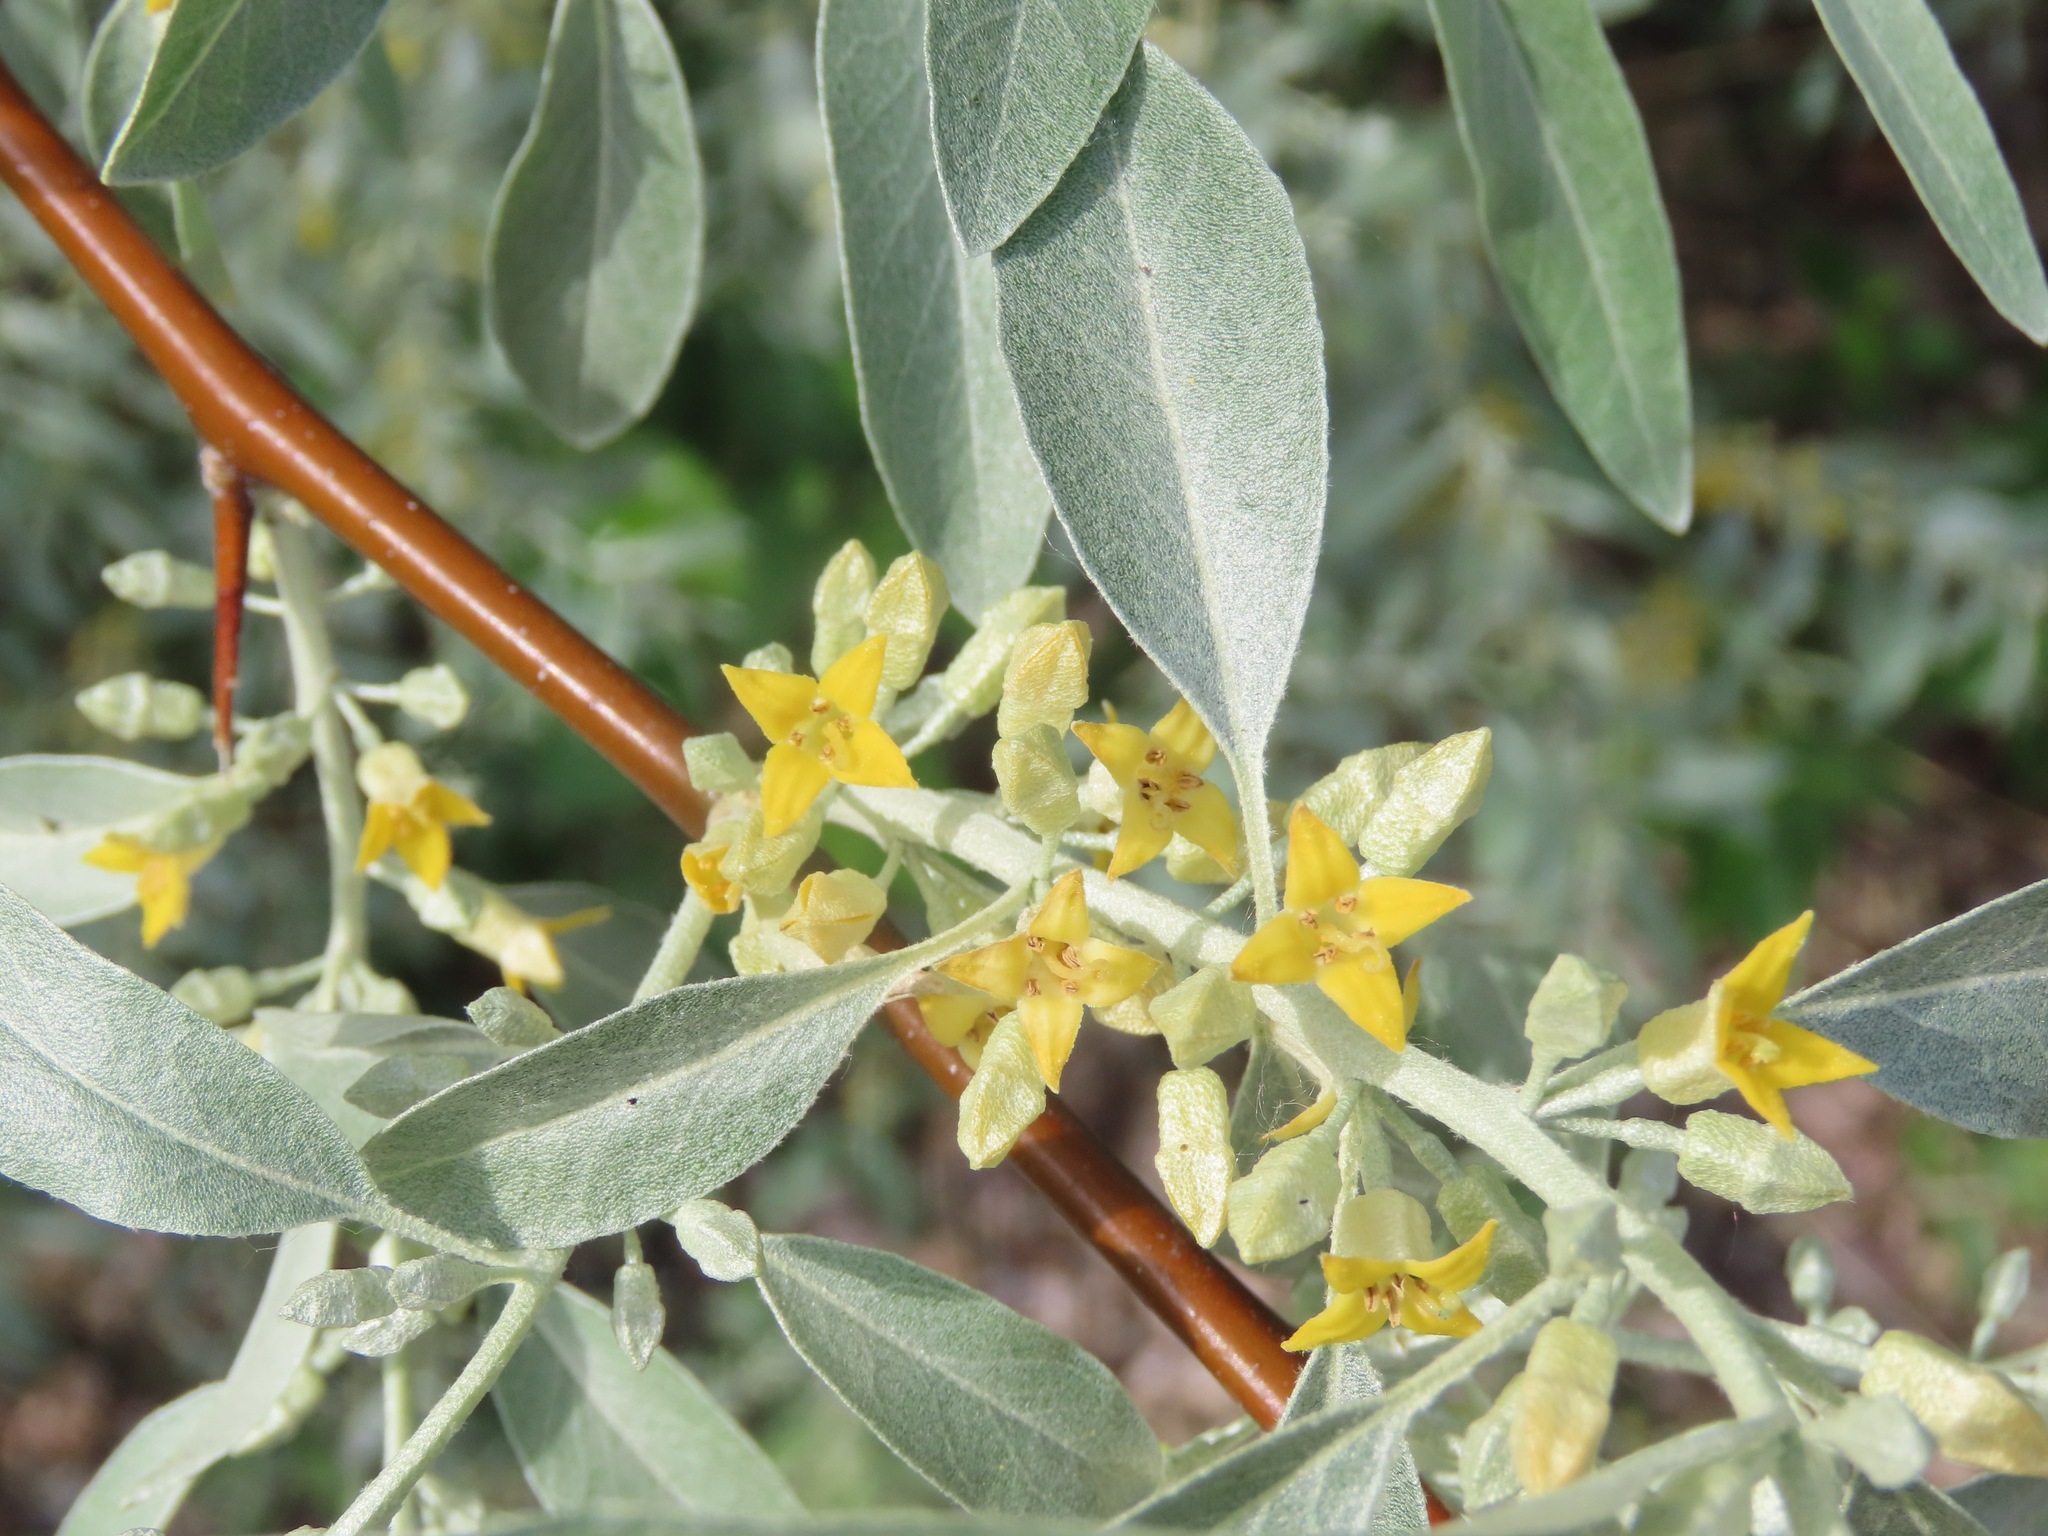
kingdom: Plantae
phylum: Tracheophyta
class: Magnoliopsida
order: Rosales
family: Elaeagnaceae
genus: Elaeagnus
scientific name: Elaeagnus angustifolia
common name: Russian olive
